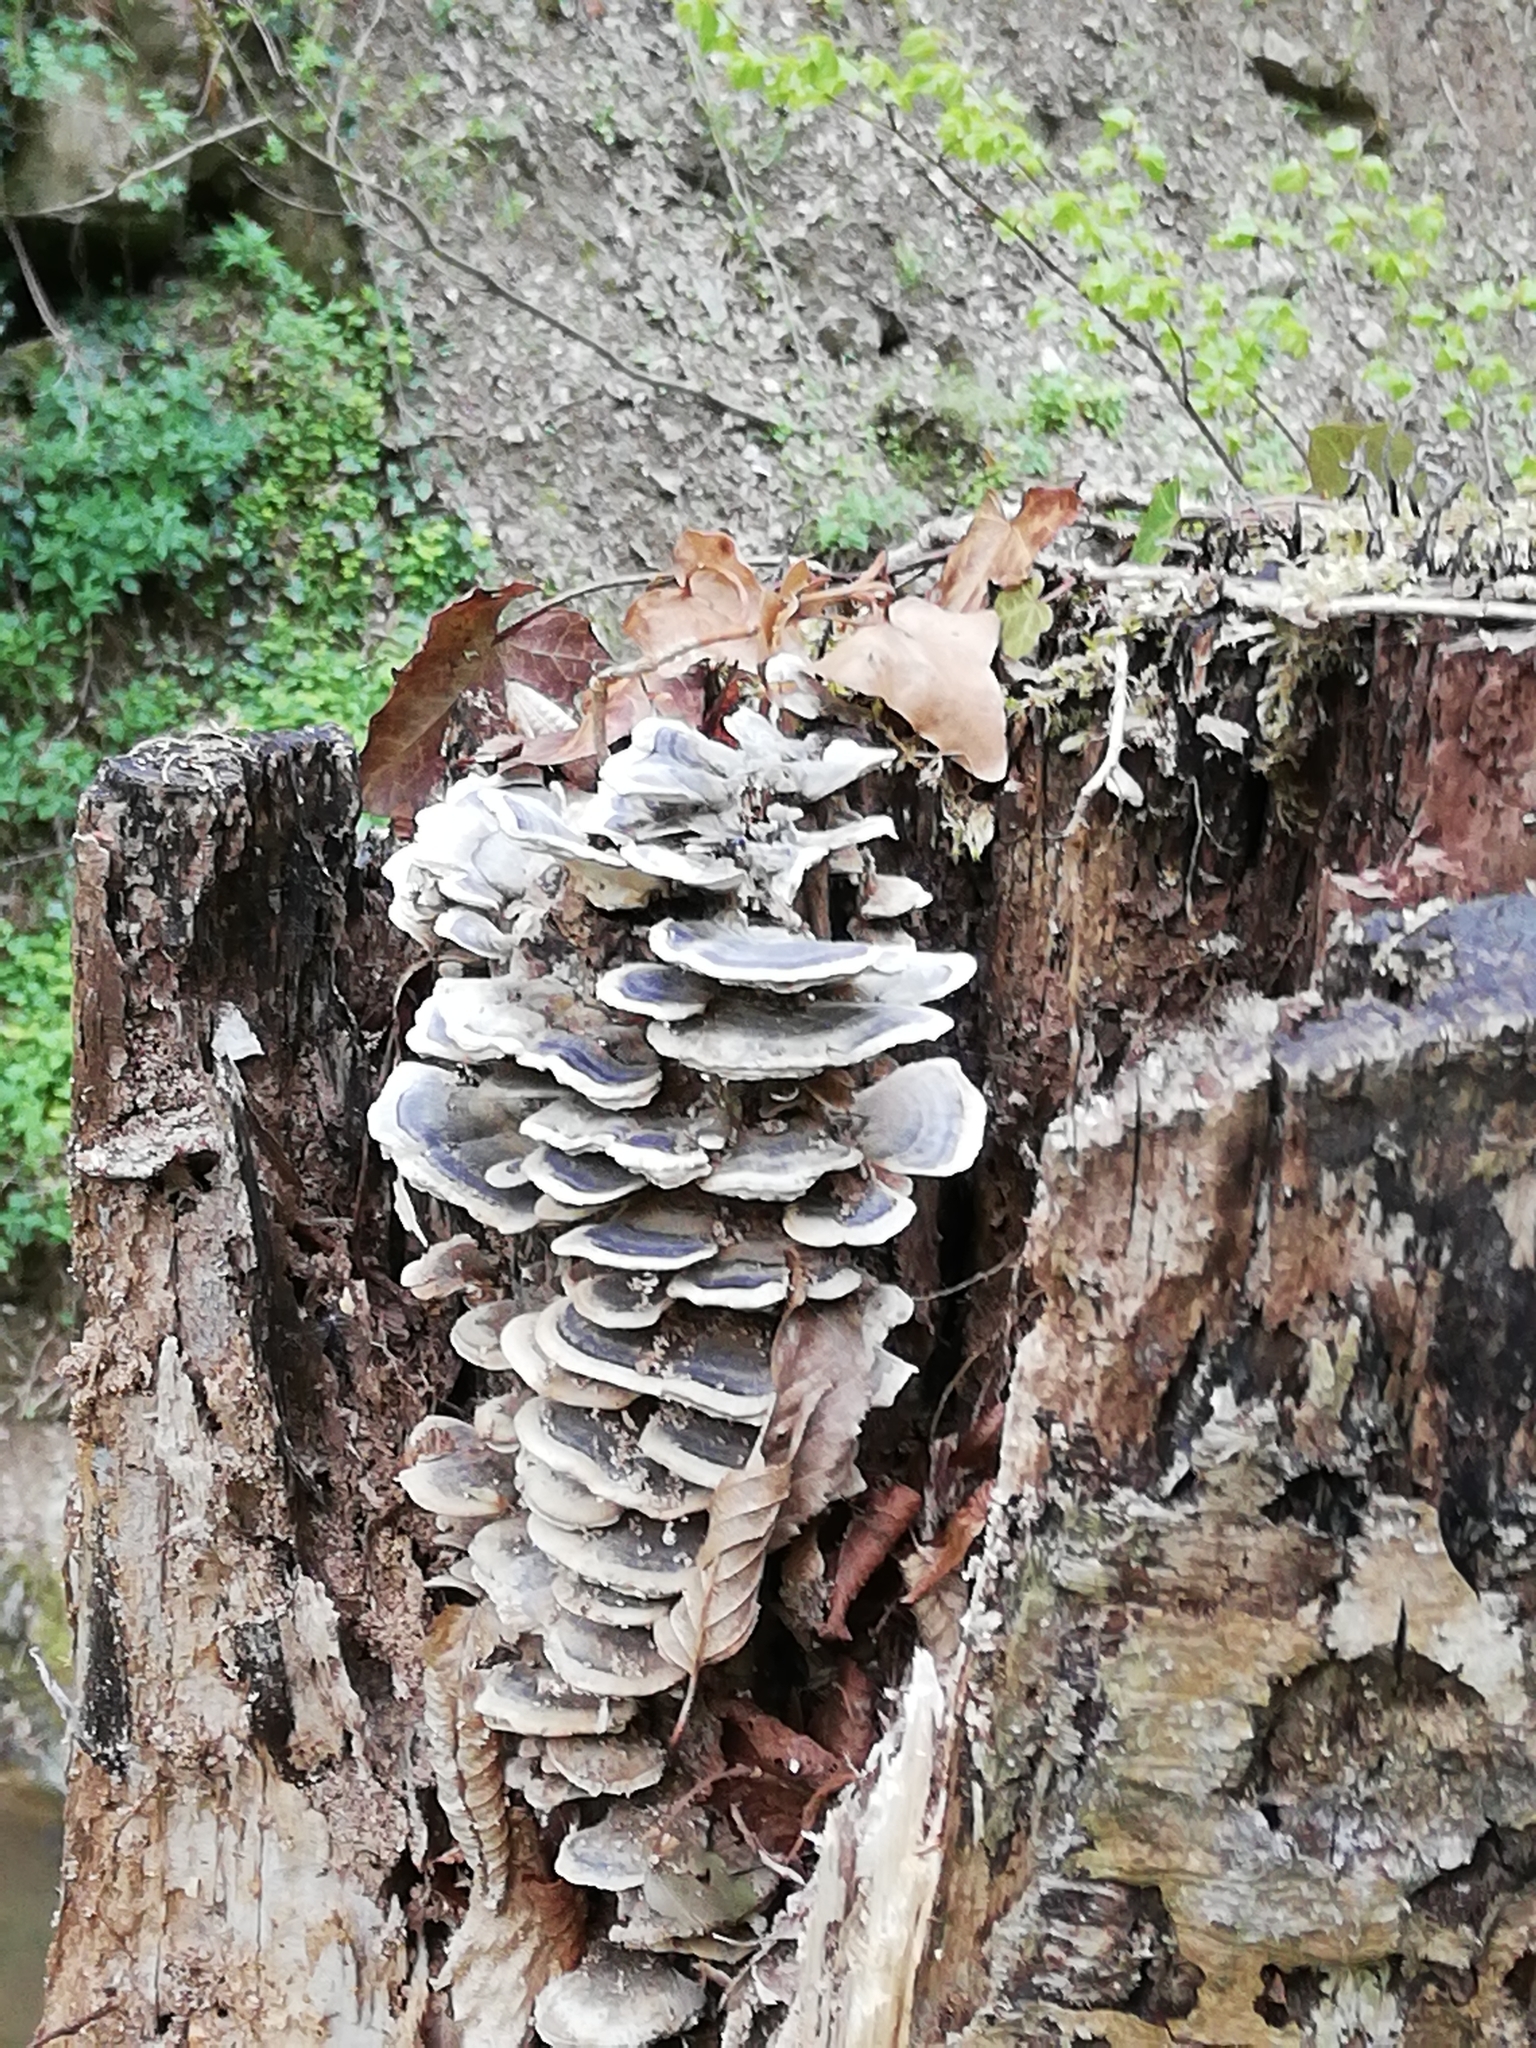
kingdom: Fungi
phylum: Basidiomycota
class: Agaricomycetes
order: Polyporales
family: Polyporaceae
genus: Trametes
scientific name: Trametes versicolor
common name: Turkeytail
